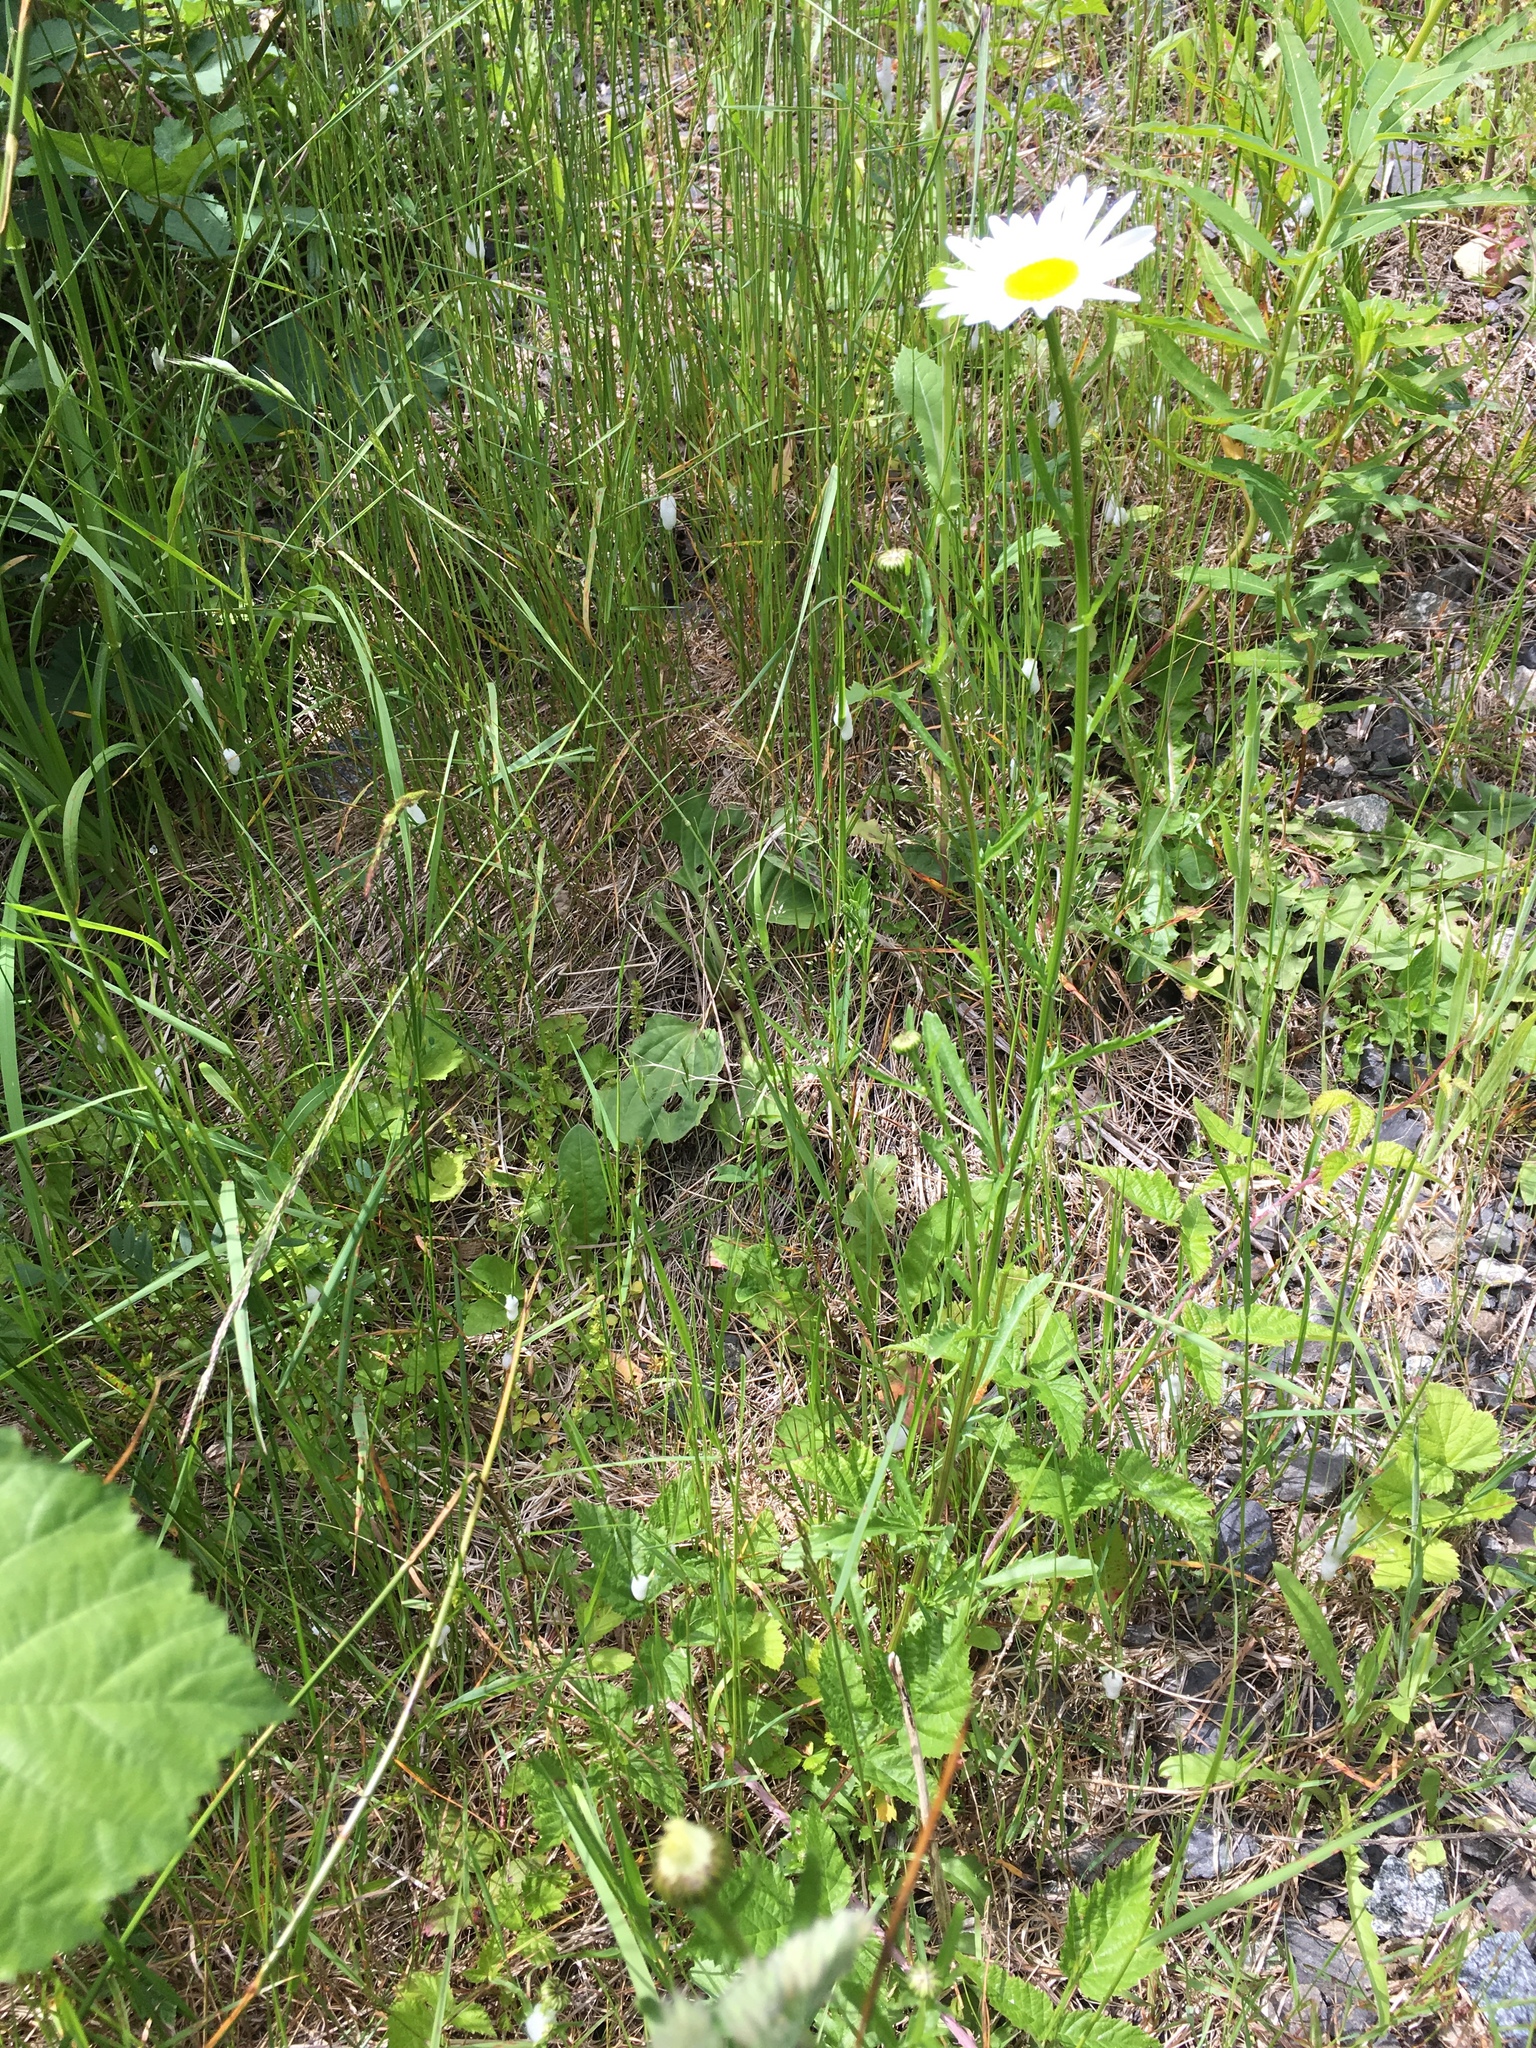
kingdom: Plantae
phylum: Tracheophyta
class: Magnoliopsida
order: Asterales
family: Asteraceae
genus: Leucanthemum
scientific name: Leucanthemum vulgare
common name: Oxeye daisy
